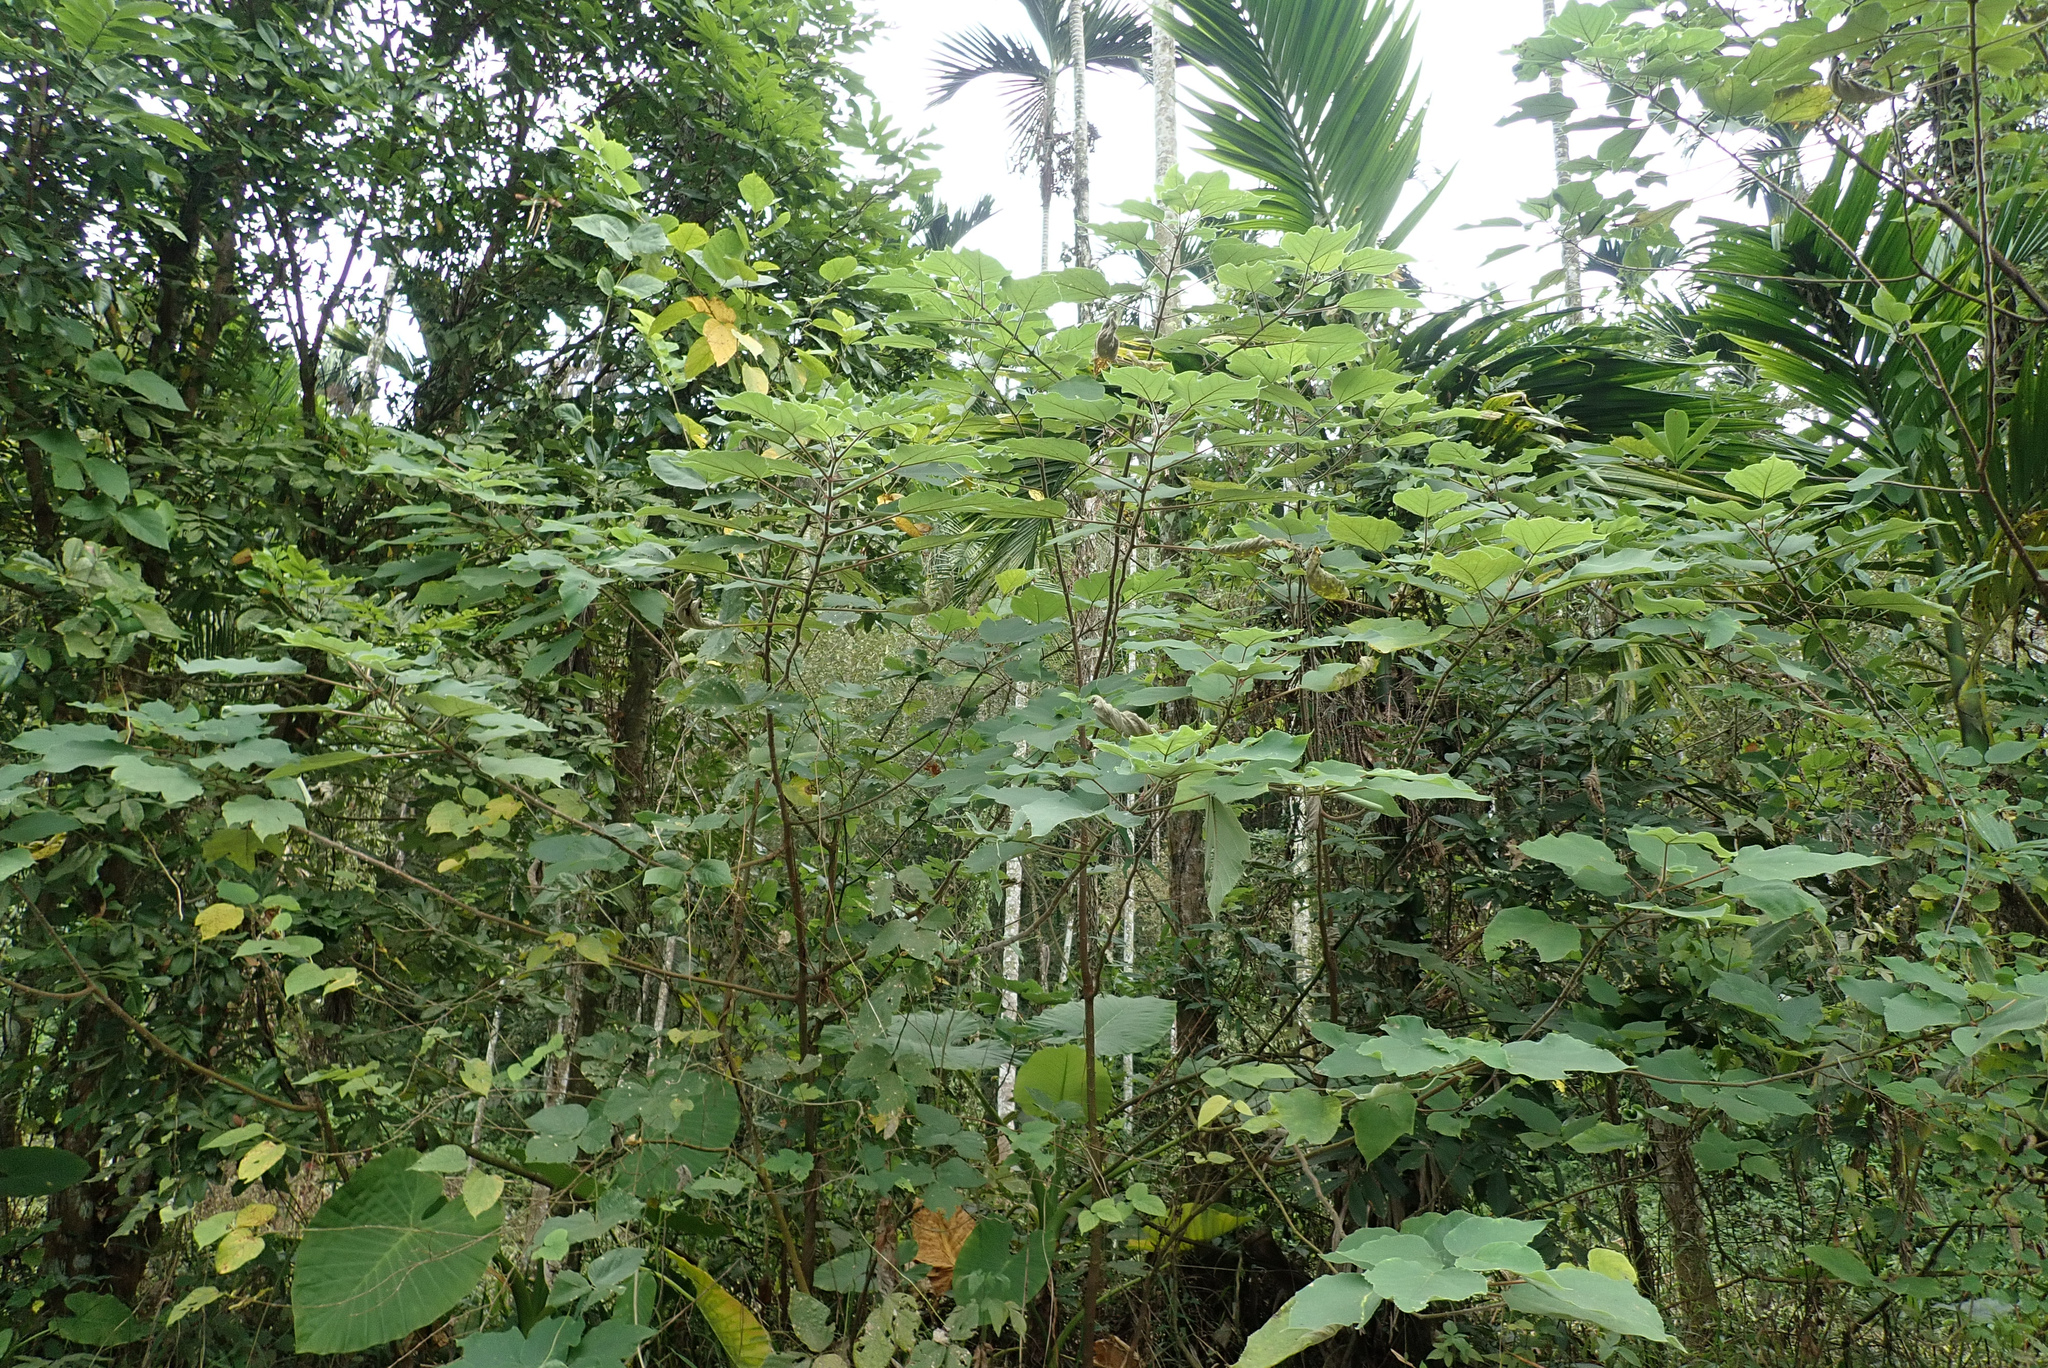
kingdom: Plantae
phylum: Tracheophyta
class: Magnoliopsida
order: Rosales
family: Moraceae
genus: Broussonetia
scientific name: Broussonetia papyrifera
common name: Paper mulberry
